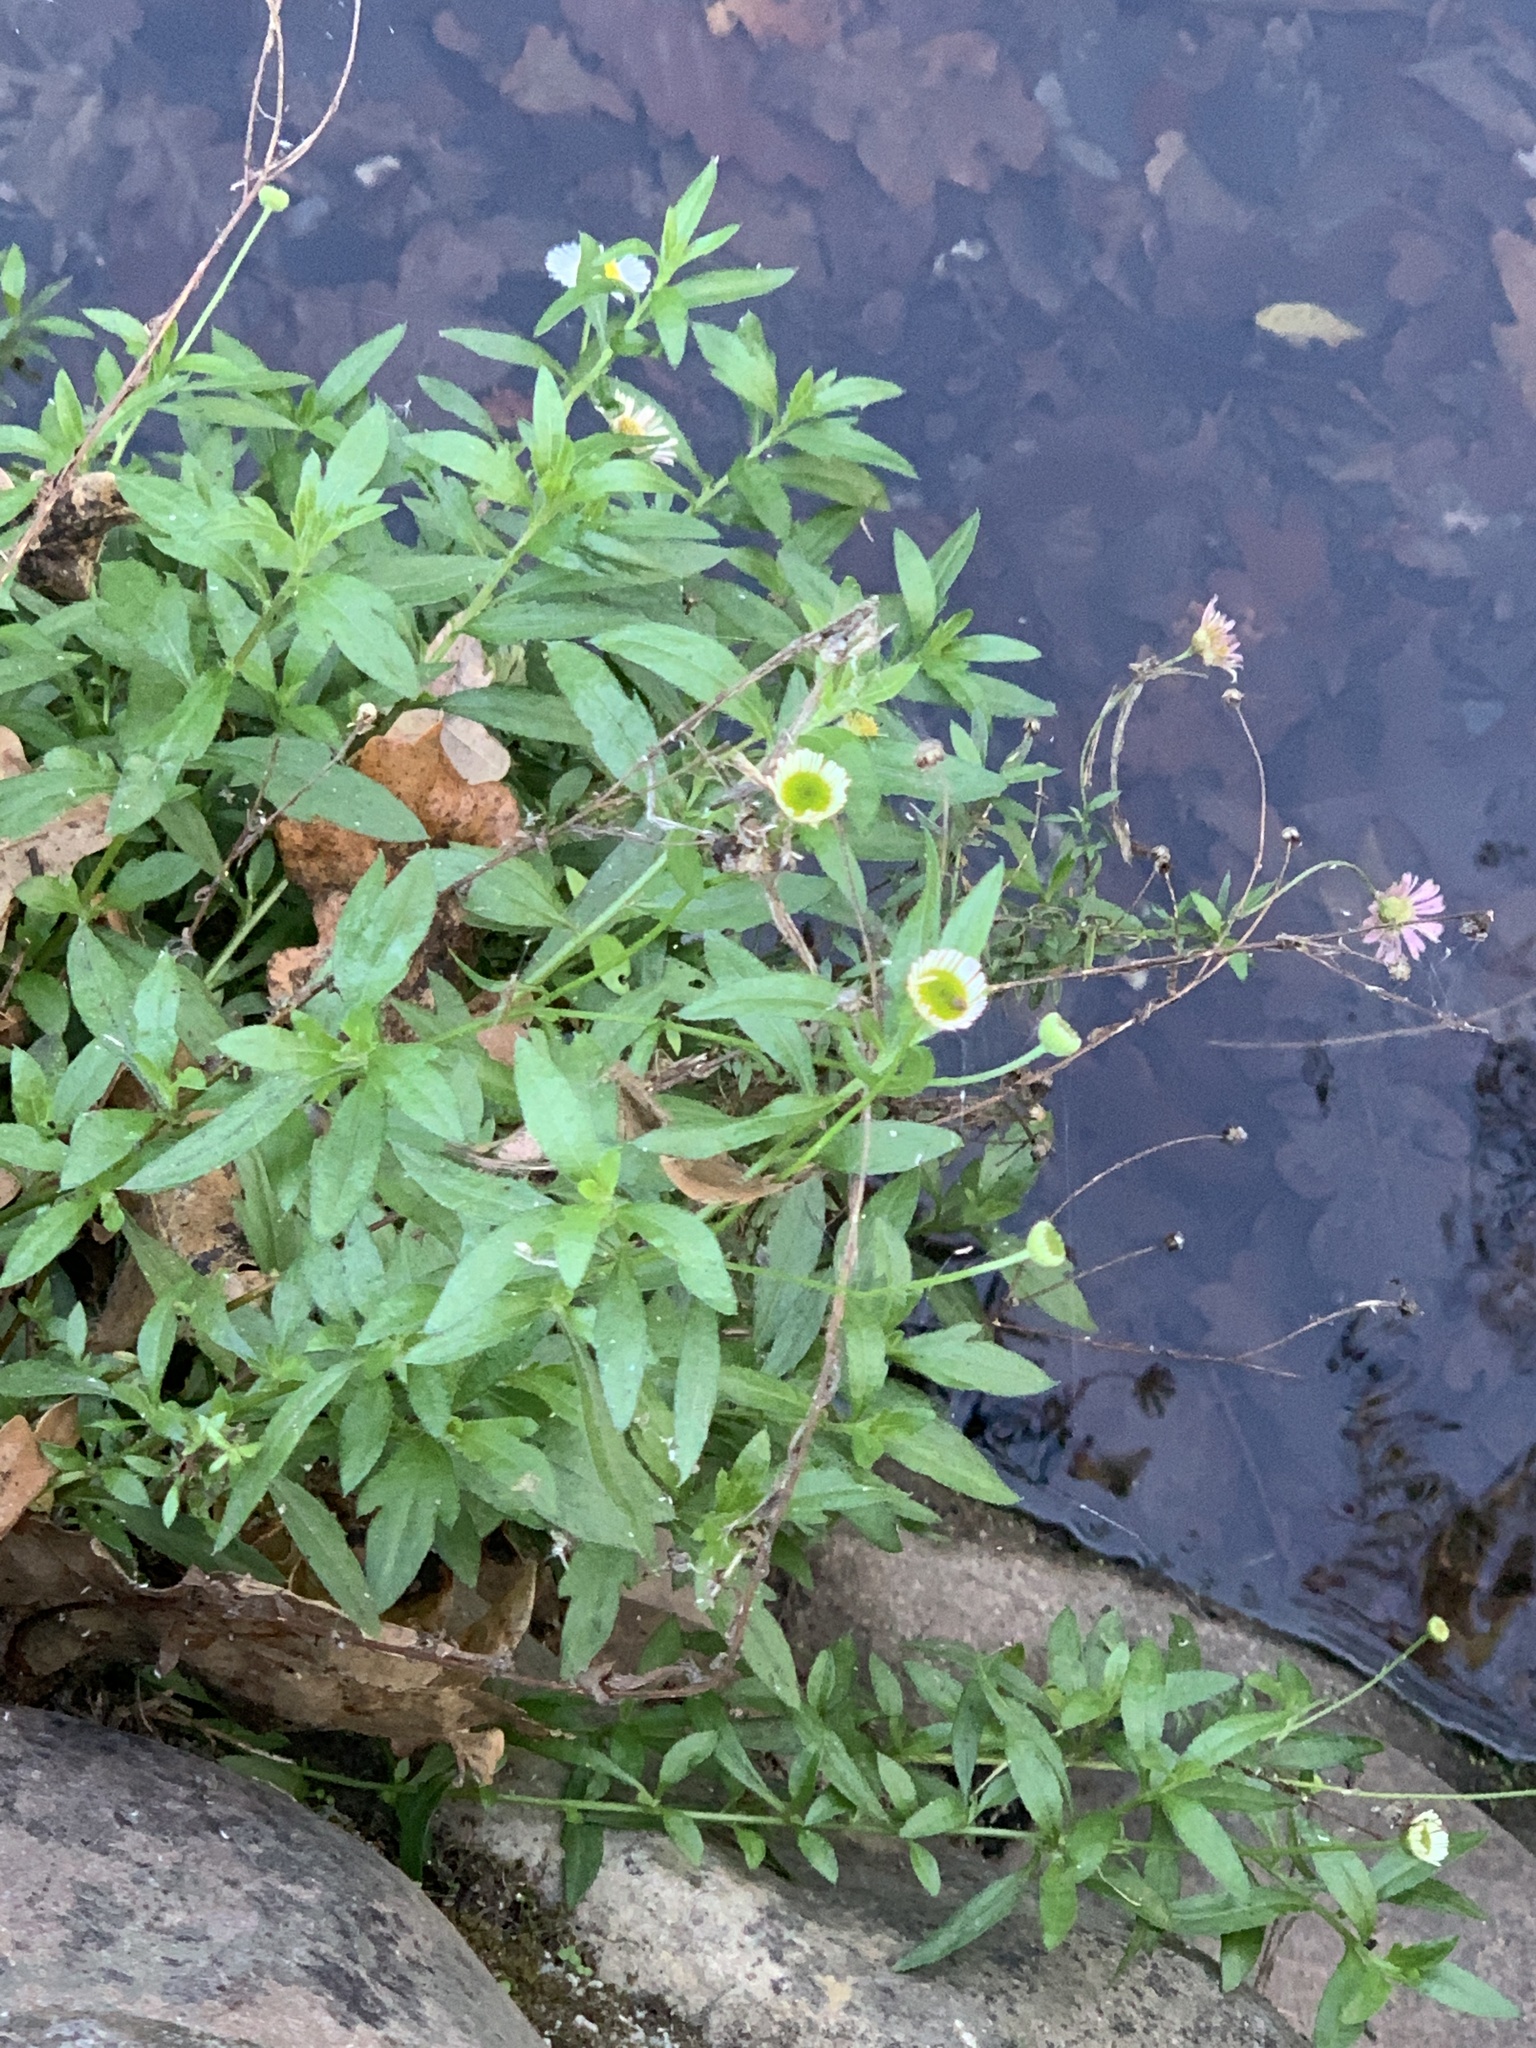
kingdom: Plantae
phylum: Tracheophyta
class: Magnoliopsida
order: Asterales
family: Asteraceae
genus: Erigeron
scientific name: Erigeron karvinskianus
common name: Mexican fleabane
